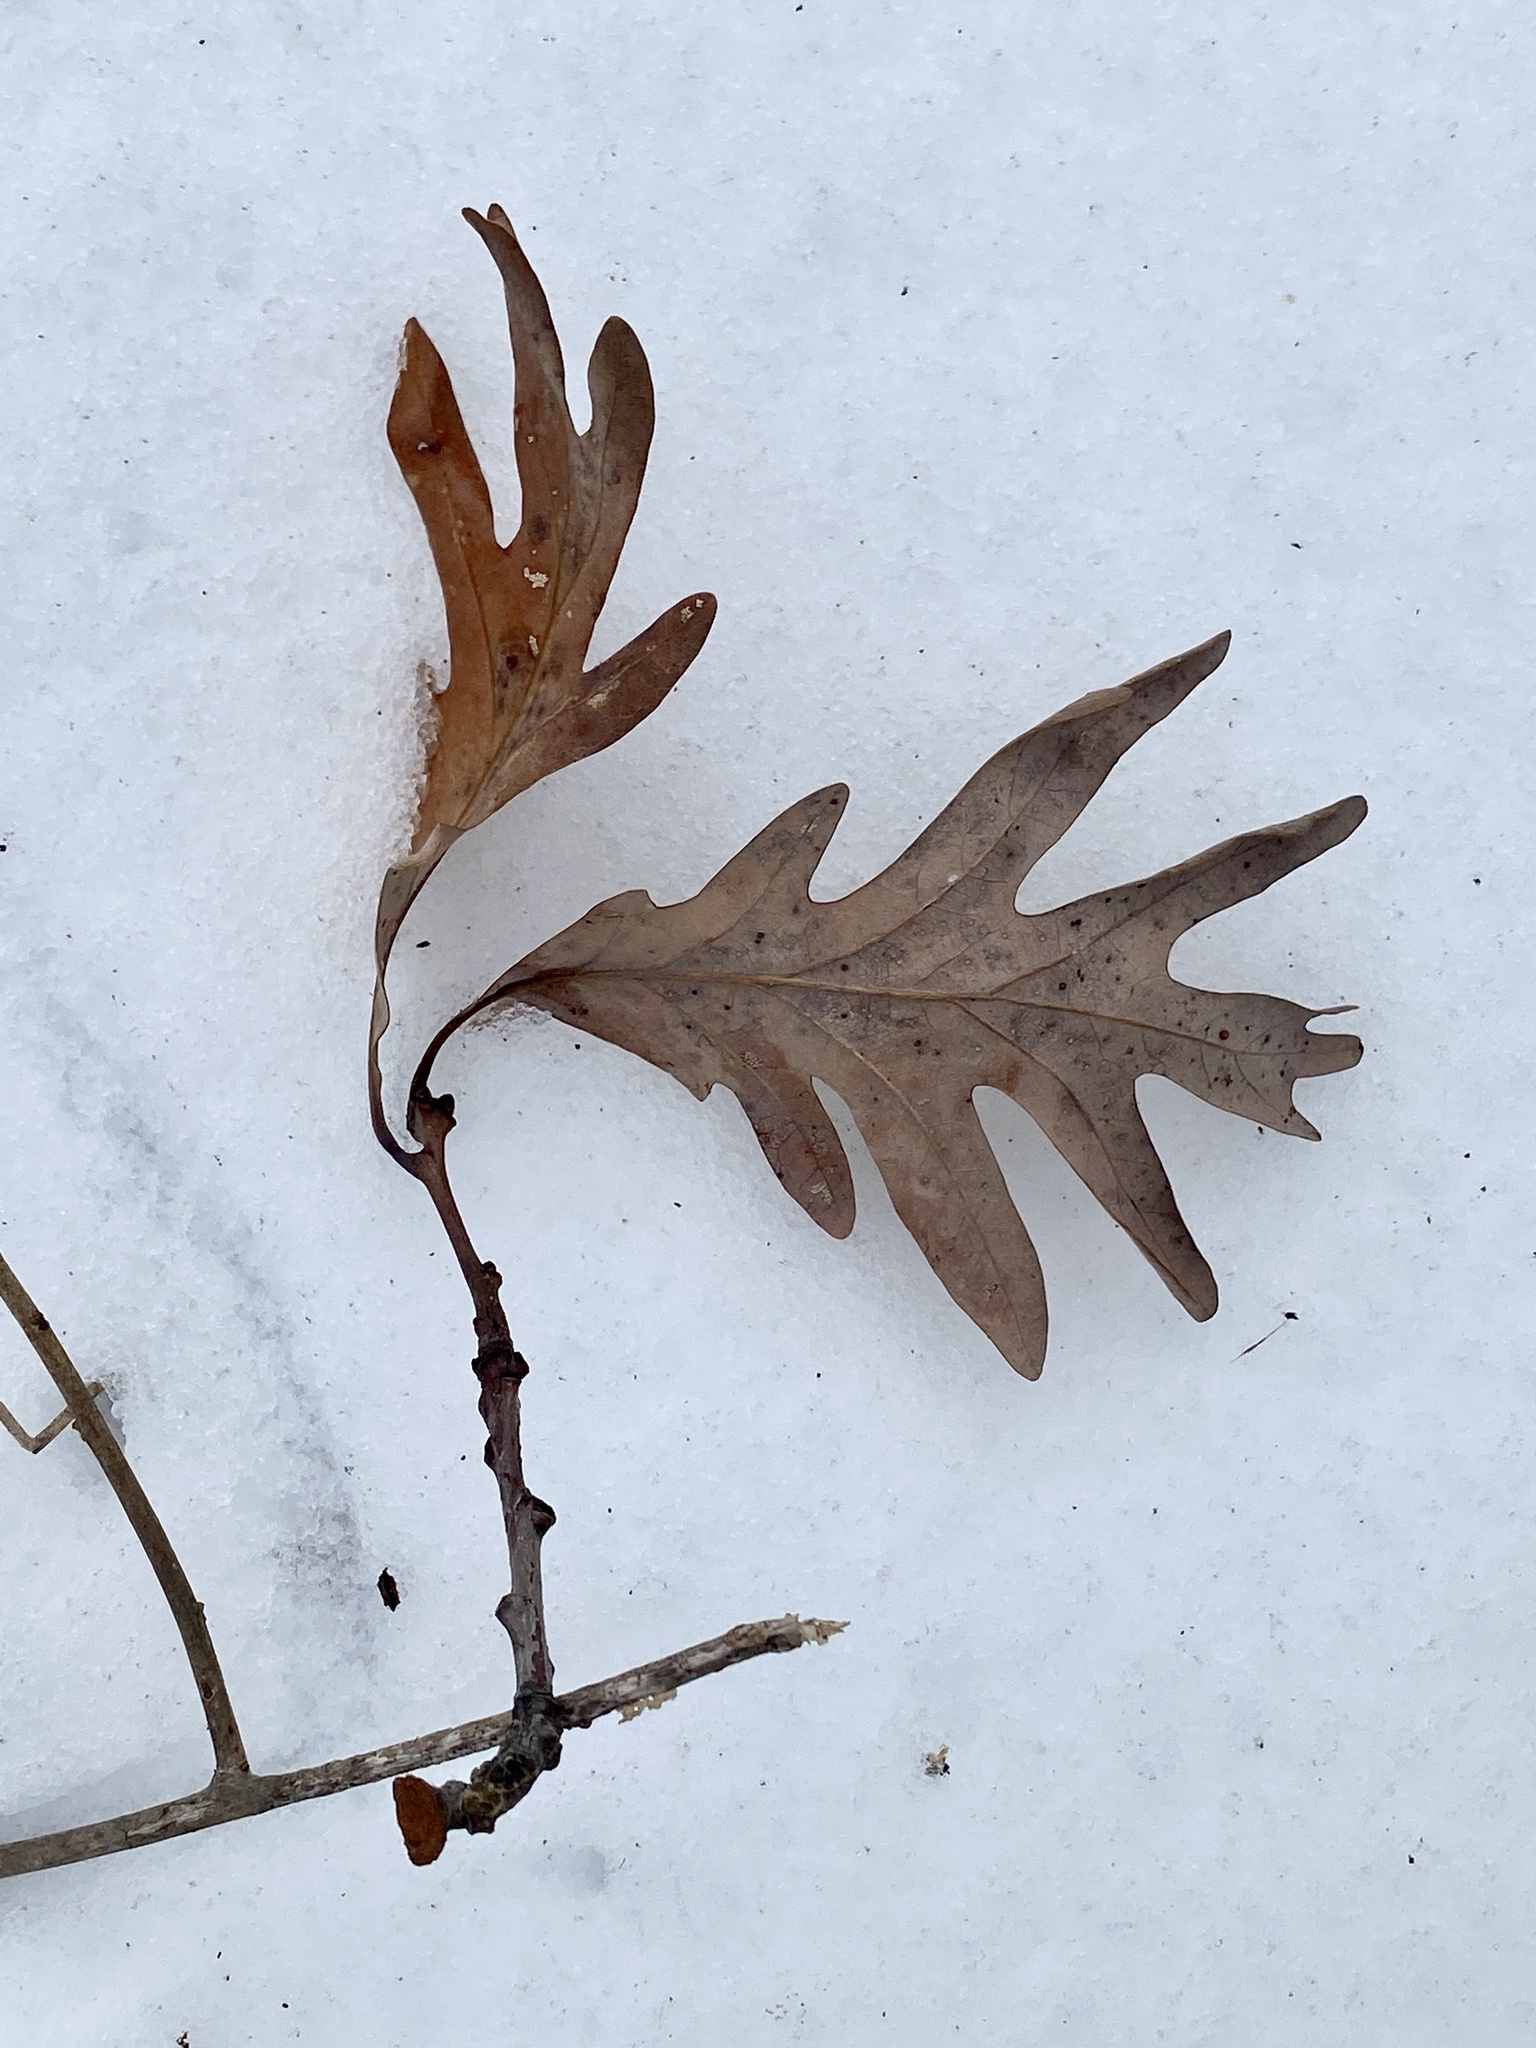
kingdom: Plantae
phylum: Tracheophyta
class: Magnoliopsida
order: Fagales
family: Fagaceae
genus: Quercus
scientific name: Quercus alba
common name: White oak
